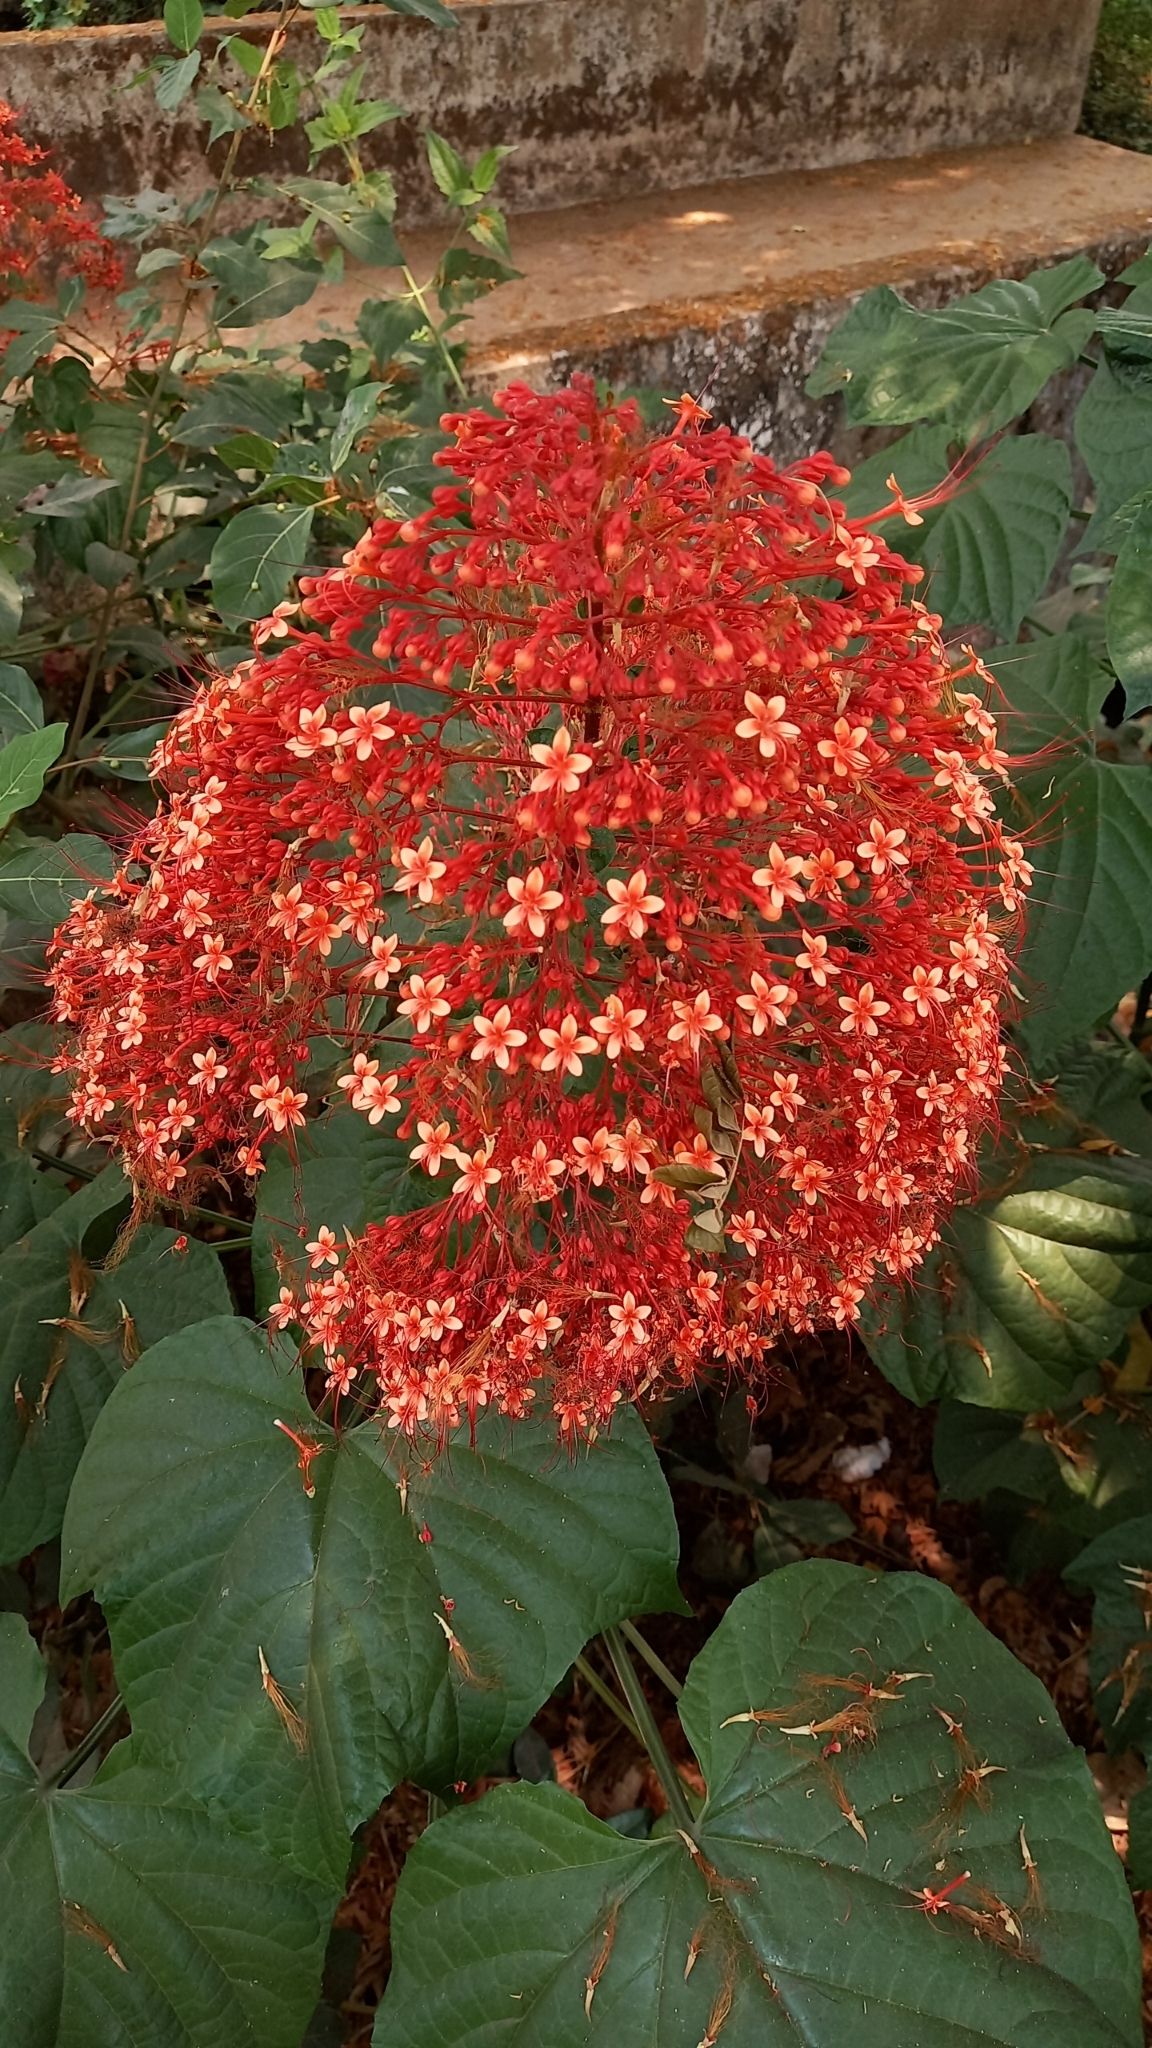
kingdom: Plantae
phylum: Tracheophyta
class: Magnoliopsida
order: Lamiales
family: Lamiaceae
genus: Clerodendrum
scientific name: Clerodendrum paniculatum
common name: Pagoda-flower
